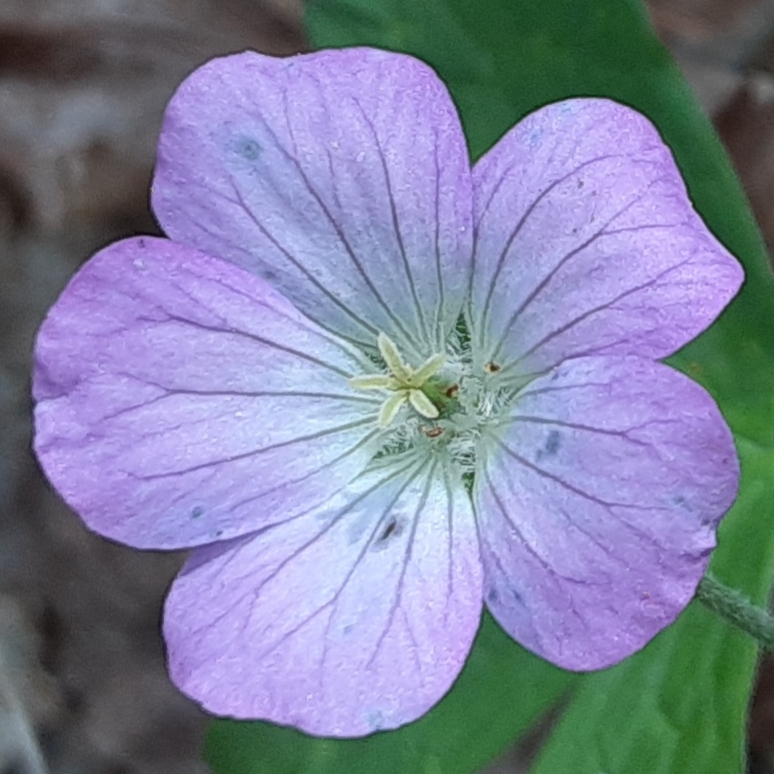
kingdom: Plantae
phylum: Tracheophyta
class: Magnoliopsida
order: Geraniales
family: Geraniaceae
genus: Geranium
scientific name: Geranium maculatum
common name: Spotted geranium
